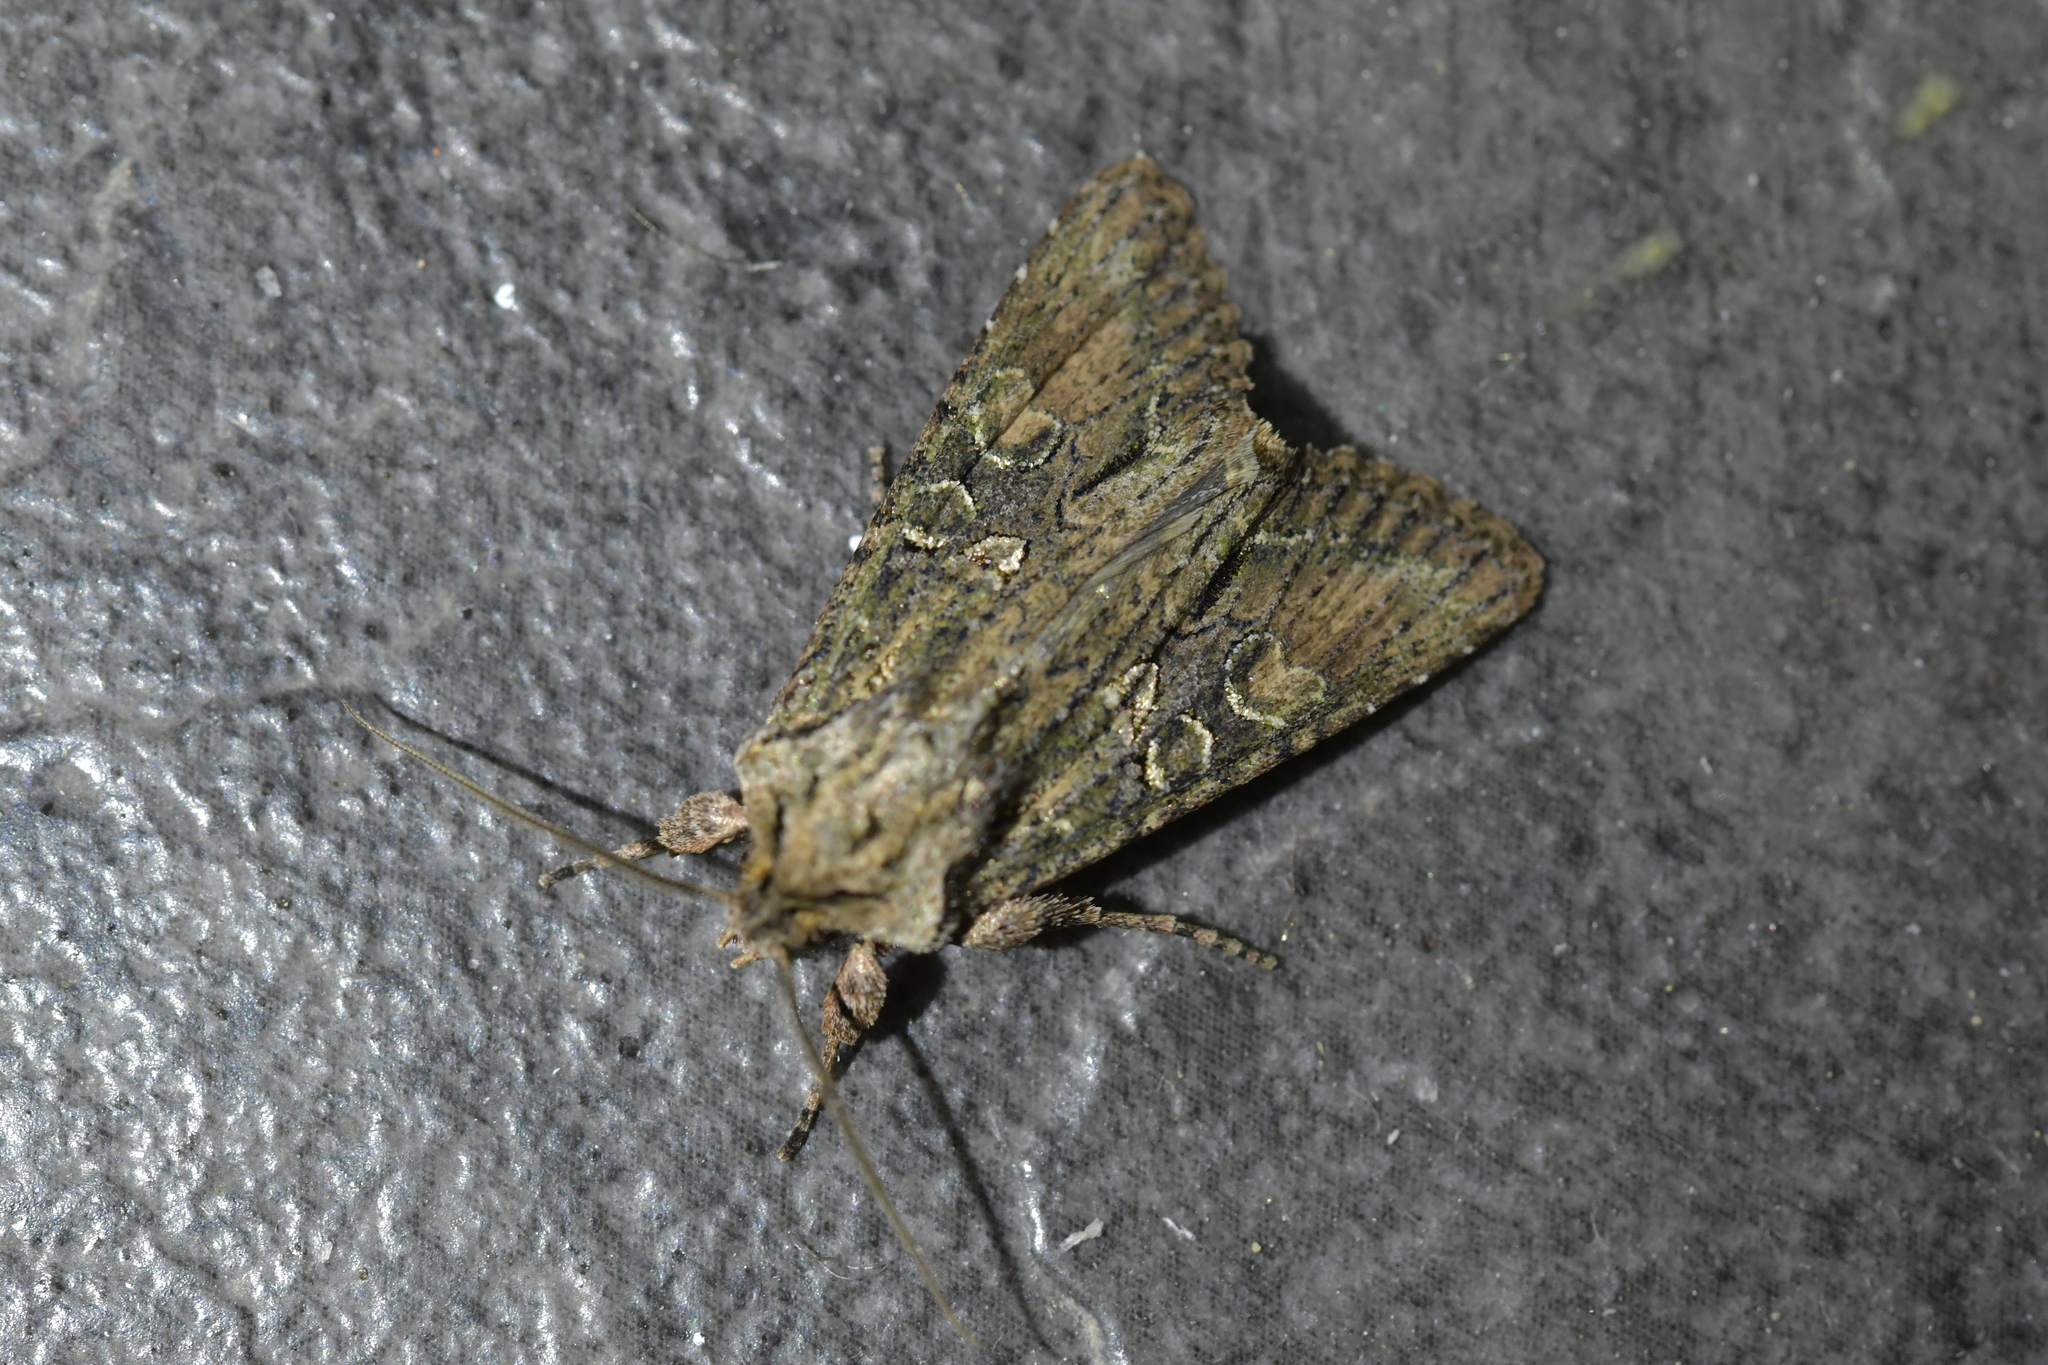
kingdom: Animalia
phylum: Arthropoda
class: Insecta
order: Lepidoptera
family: Noctuidae
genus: Ichneutica
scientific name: Ichneutica mutans
